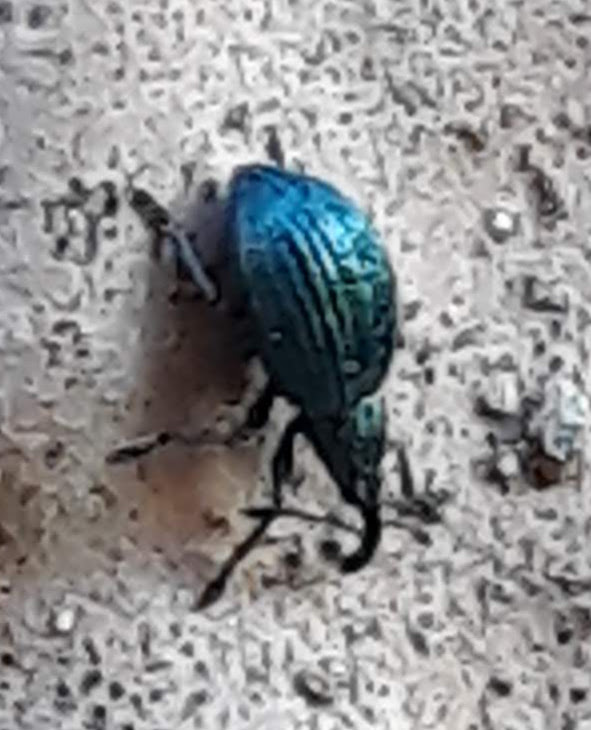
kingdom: Animalia
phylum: Arthropoda
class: Insecta
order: Coleoptera
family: Apionidae
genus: Ischnopterapion
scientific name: Ischnopterapion virens
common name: White clover weevil
